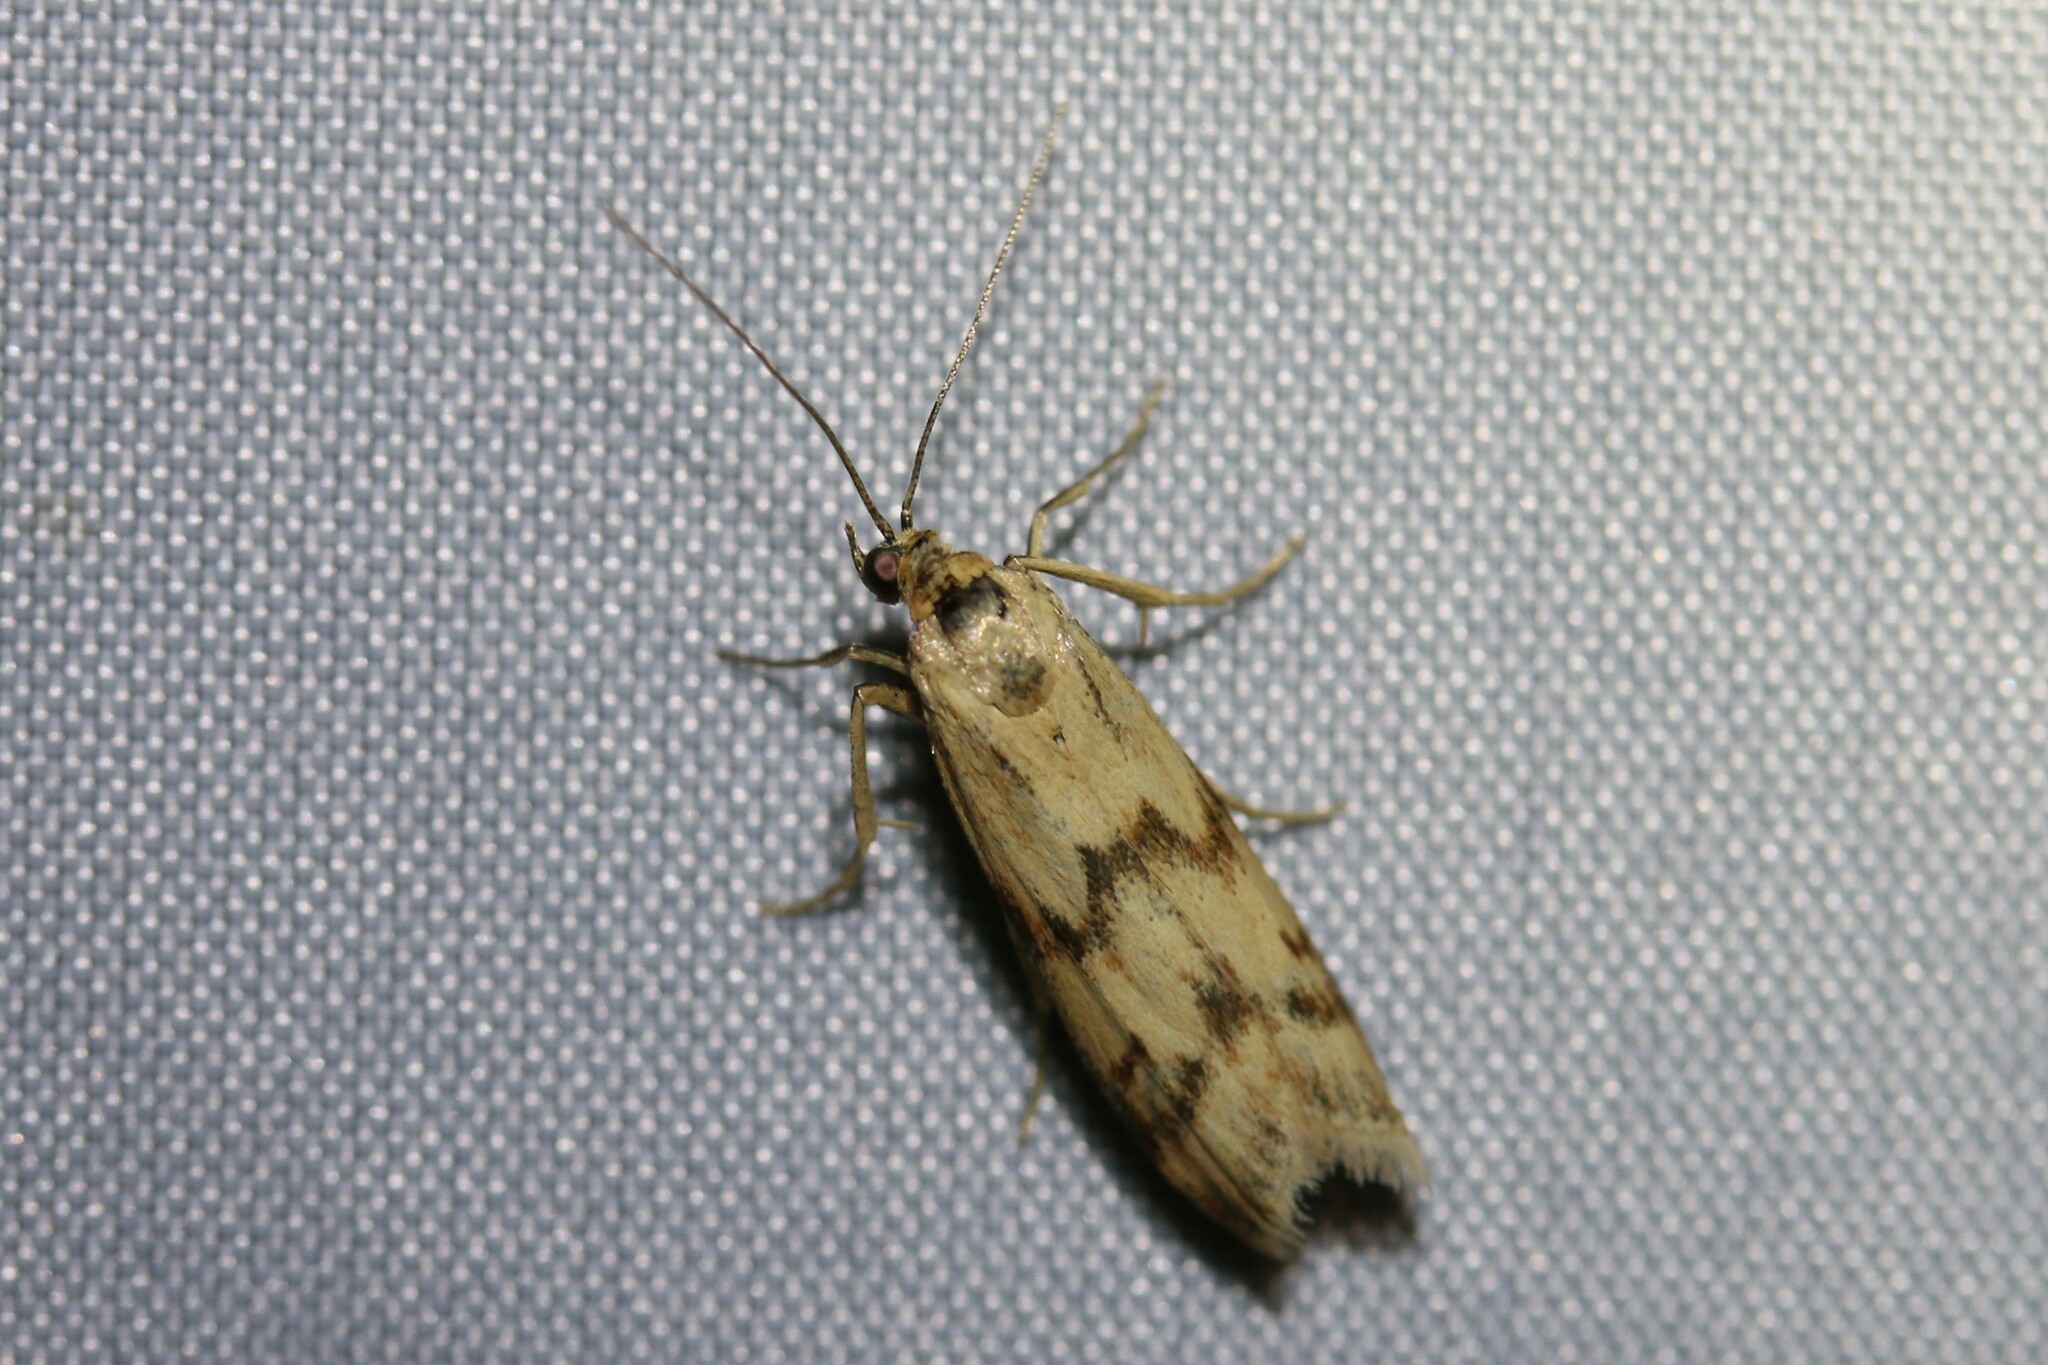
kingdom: Animalia
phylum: Arthropoda
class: Insecta
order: Lepidoptera
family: Pyralidae
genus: Homoeosoma
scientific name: Homoeosoma sinuella
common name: Twin-barred knot-horn
